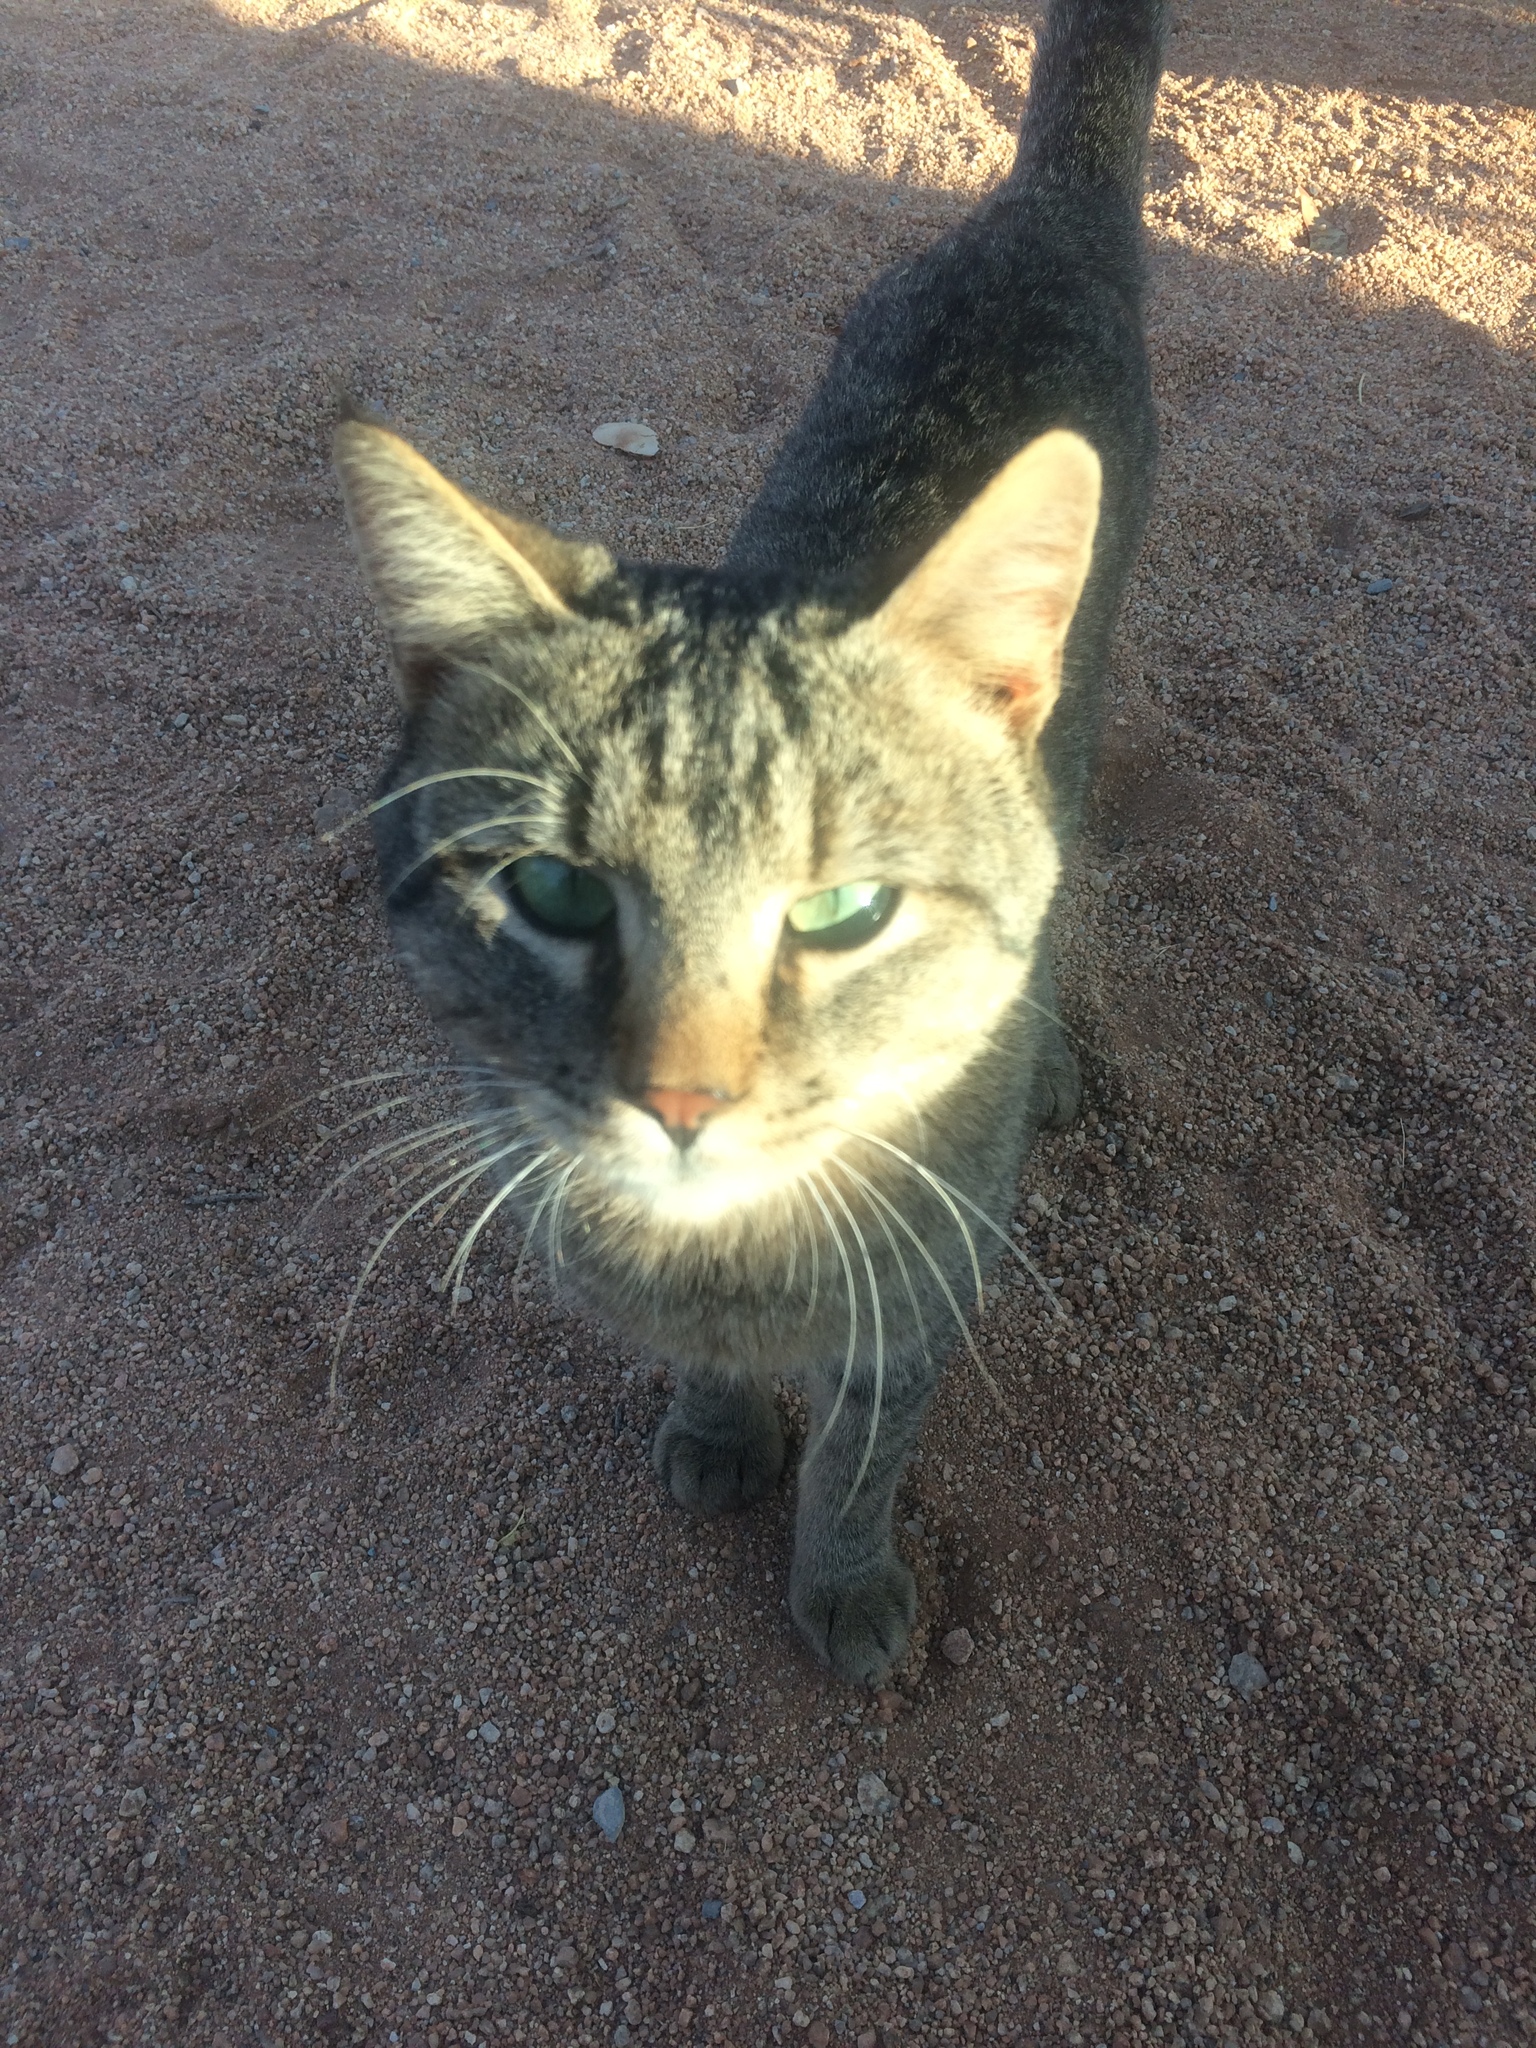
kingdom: Animalia
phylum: Chordata
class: Mammalia
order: Carnivora
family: Felidae
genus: Felis
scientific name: Felis catus
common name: Domestic cat
